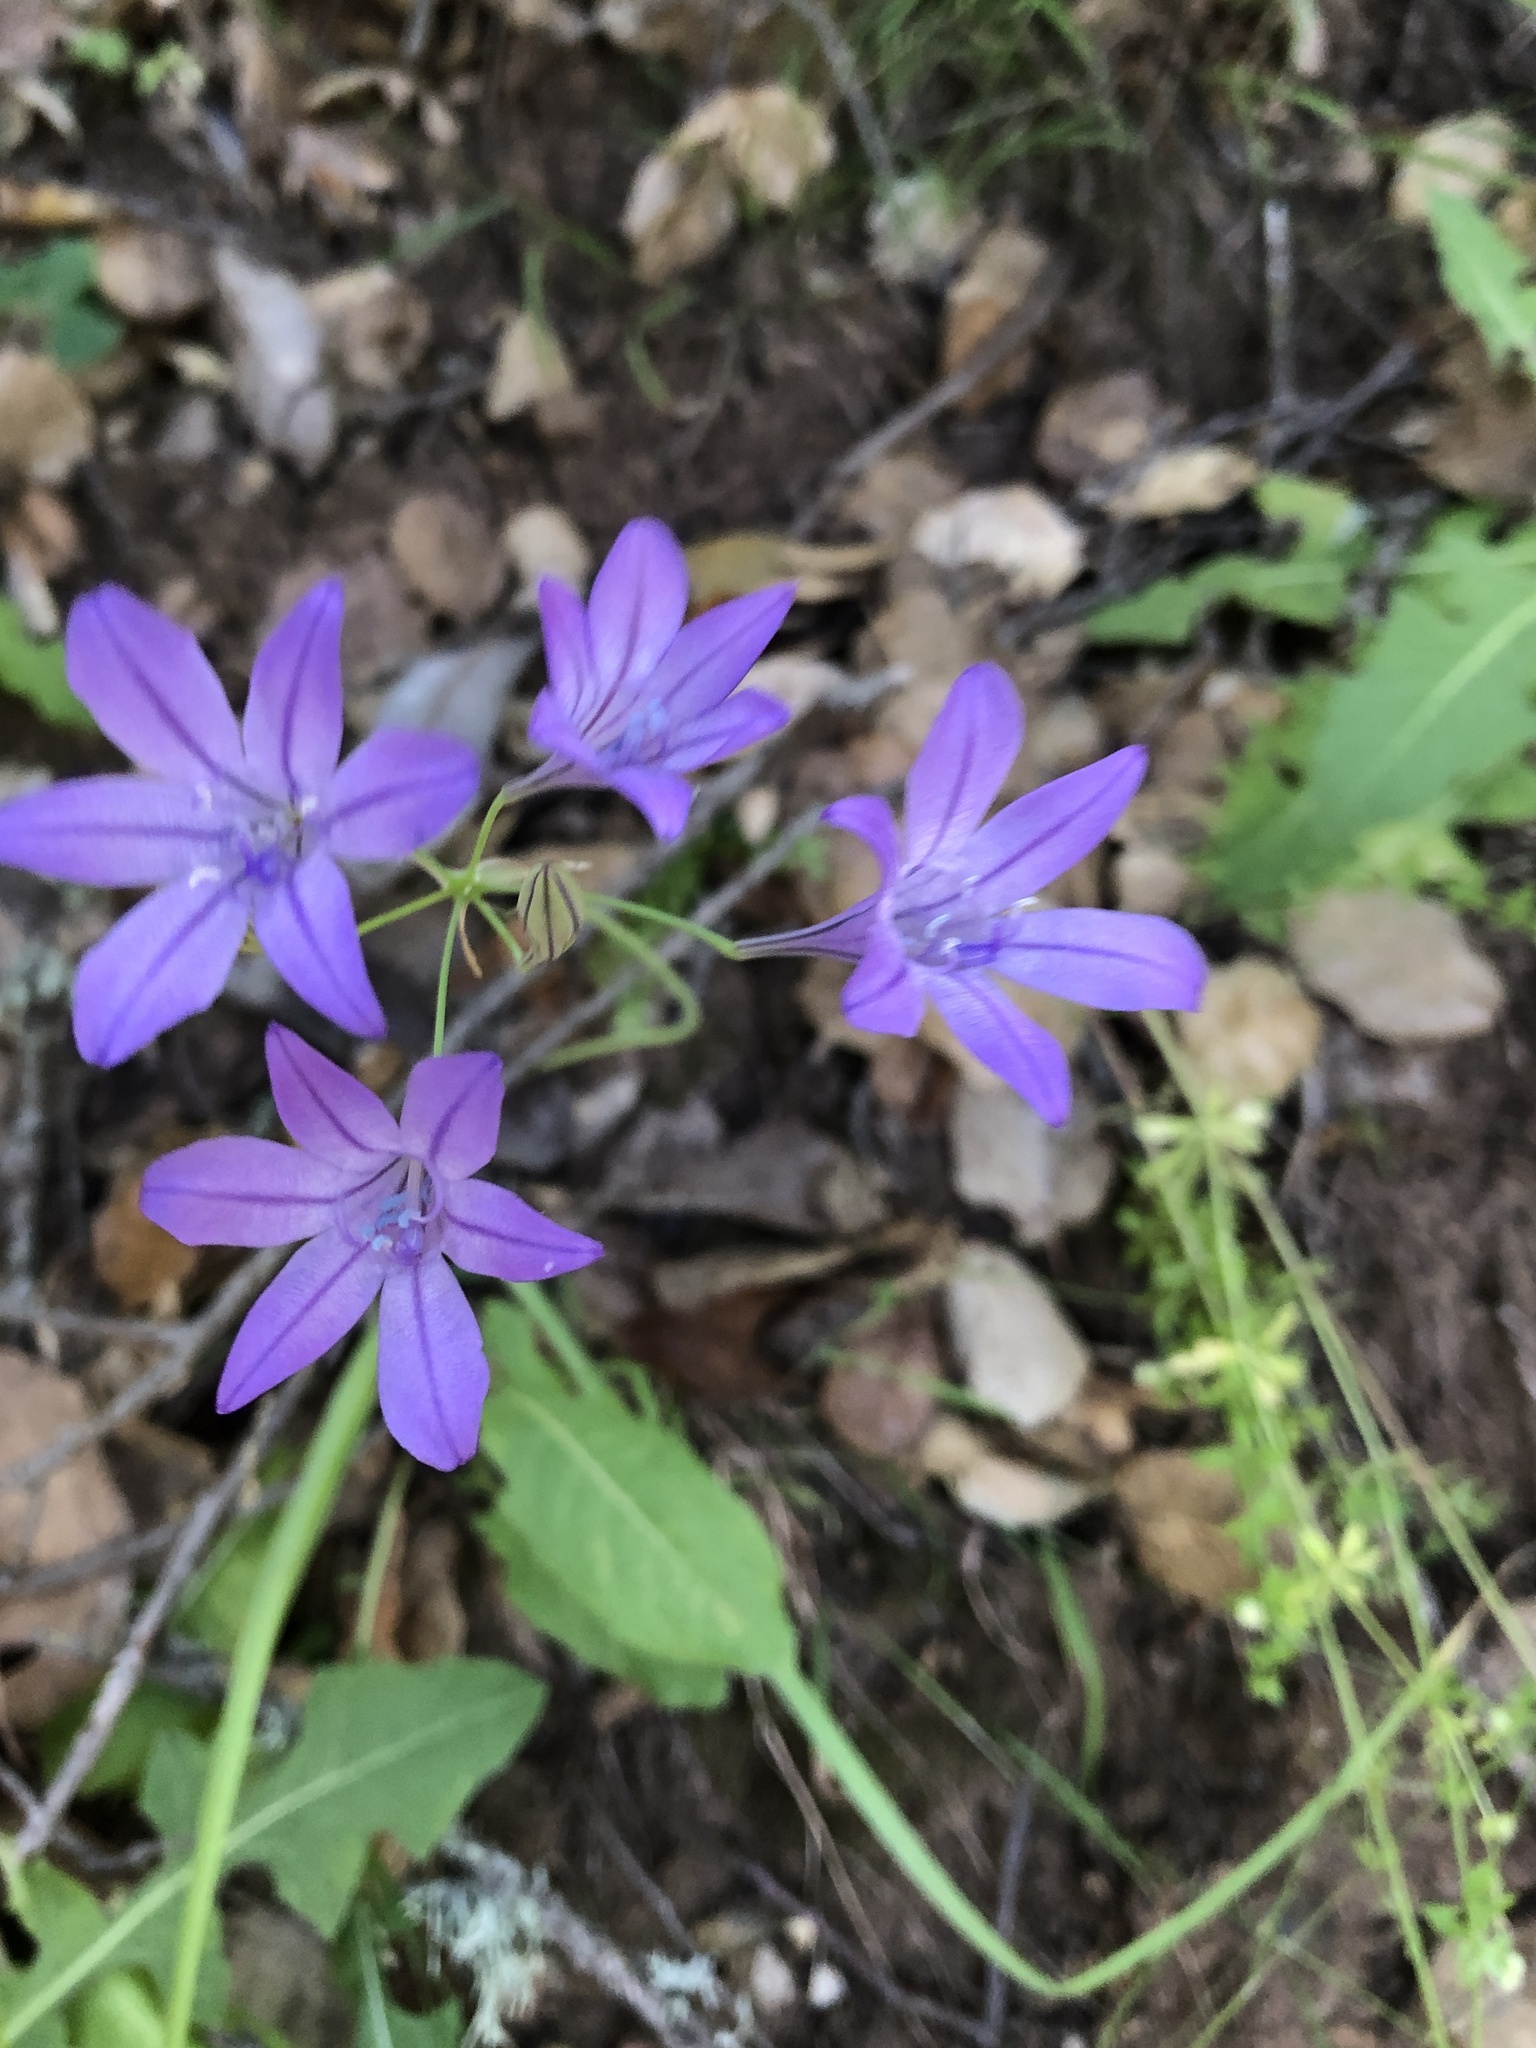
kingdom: Plantae
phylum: Tracheophyta
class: Liliopsida
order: Asparagales
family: Asparagaceae
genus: Triteleia
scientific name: Triteleia laxa
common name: Triplet-lily
